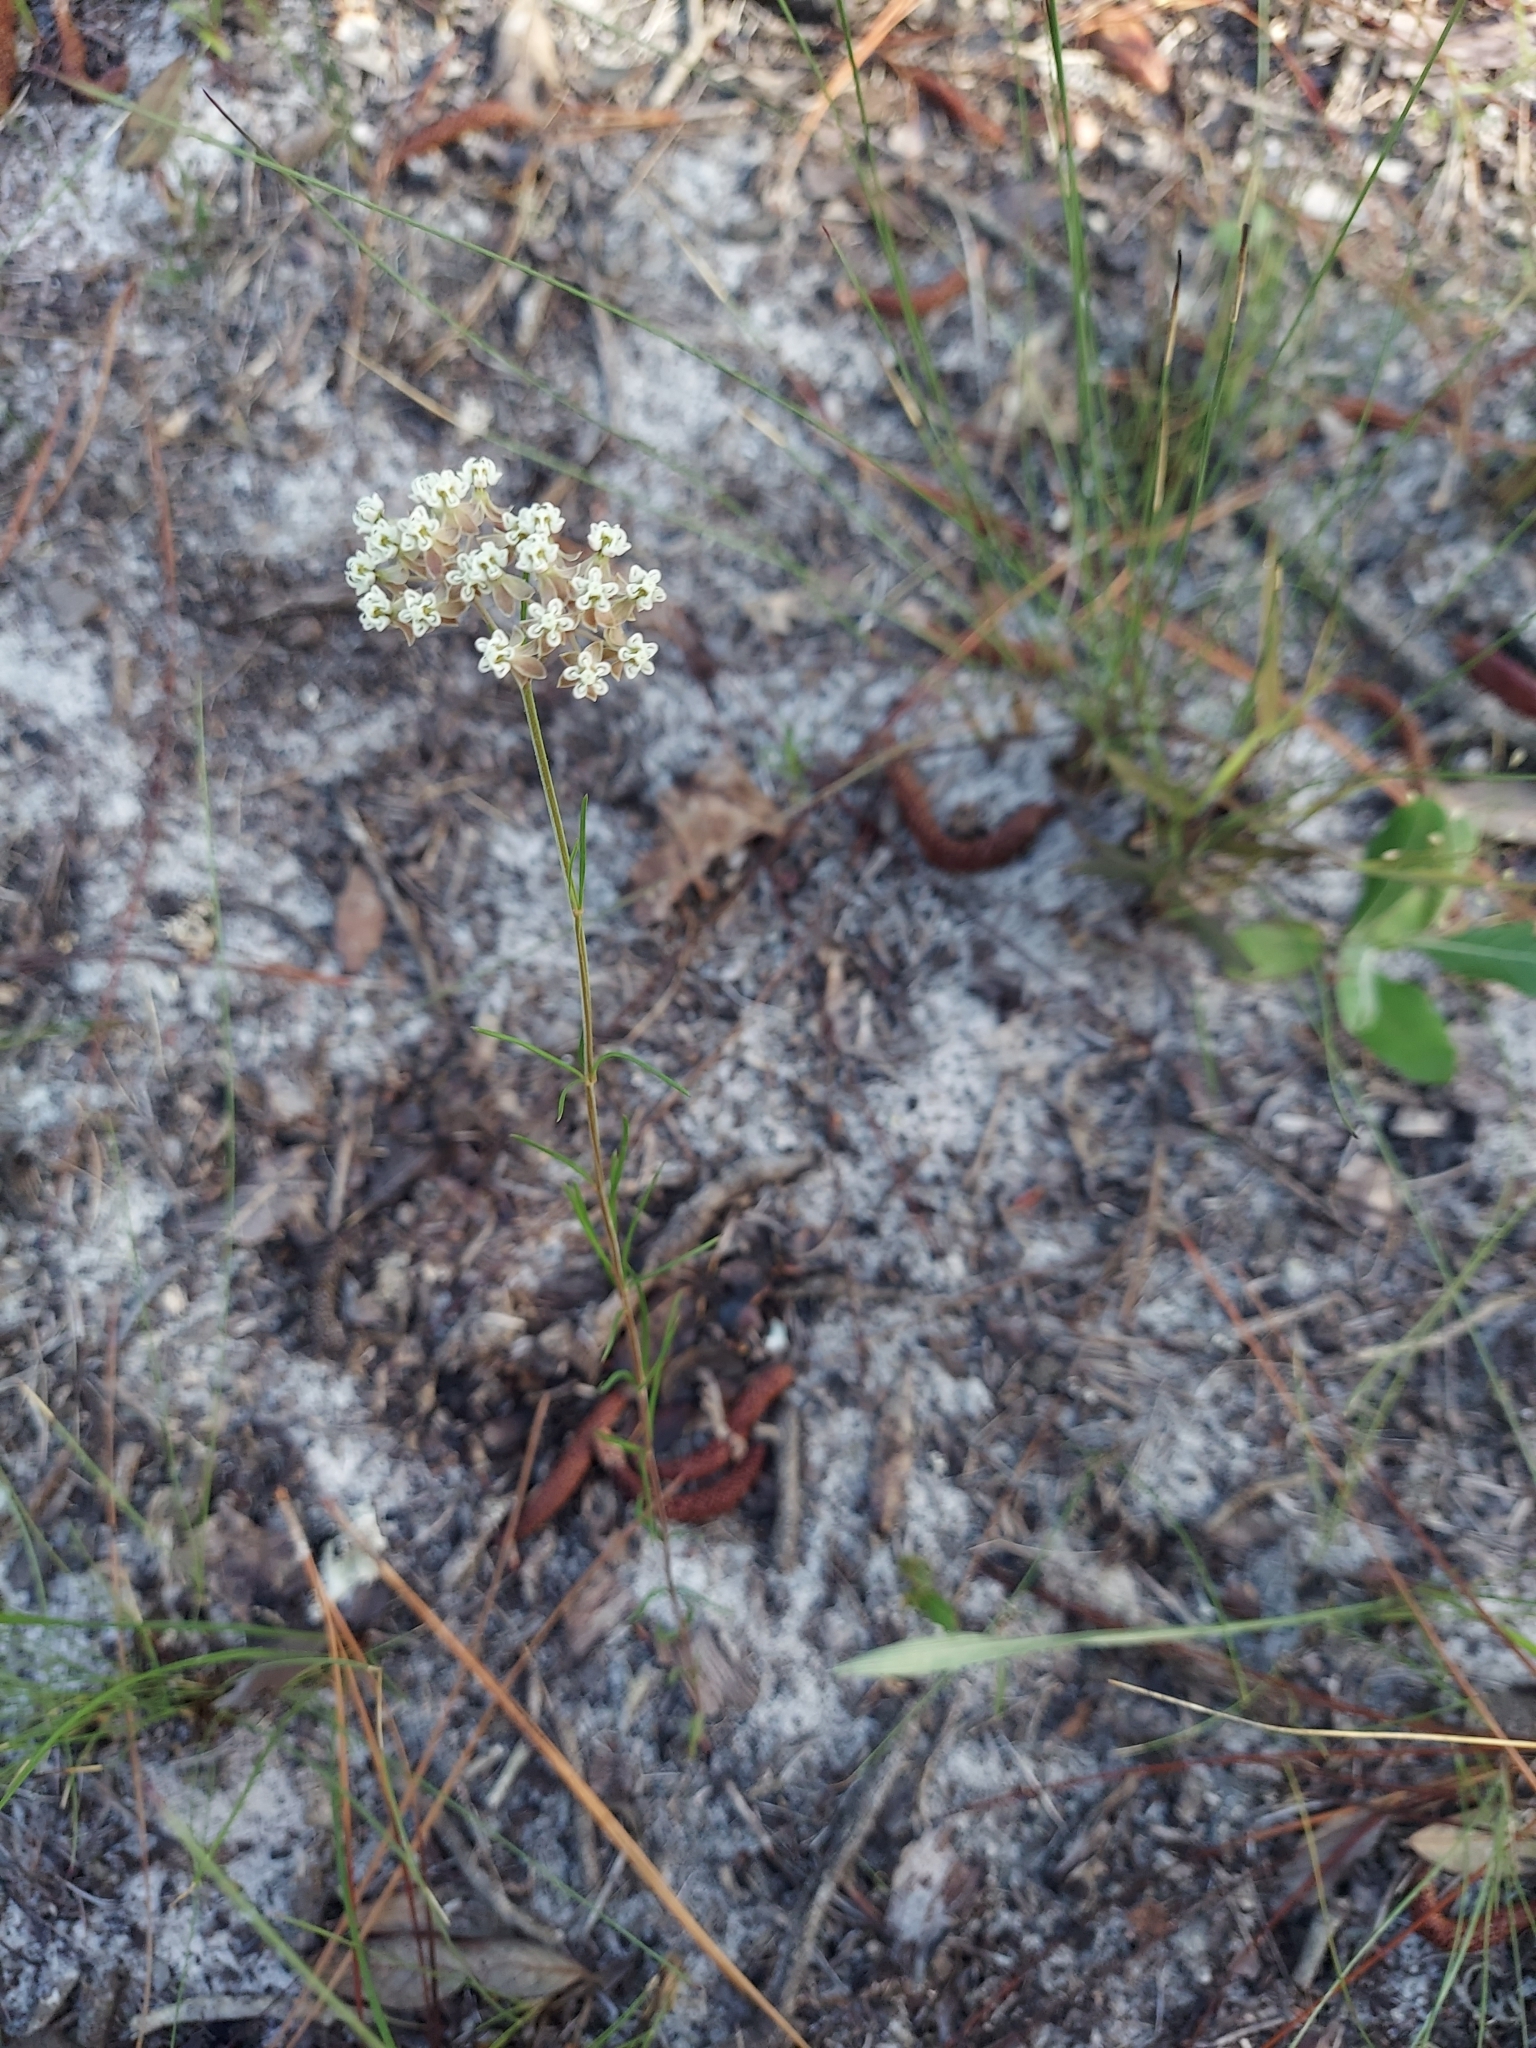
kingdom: Plantae
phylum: Tracheophyta
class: Magnoliopsida
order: Gentianales
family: Apocynaceae
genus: Asclepias
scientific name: Asclepias verticillata
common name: Eastern whorled milkweed
